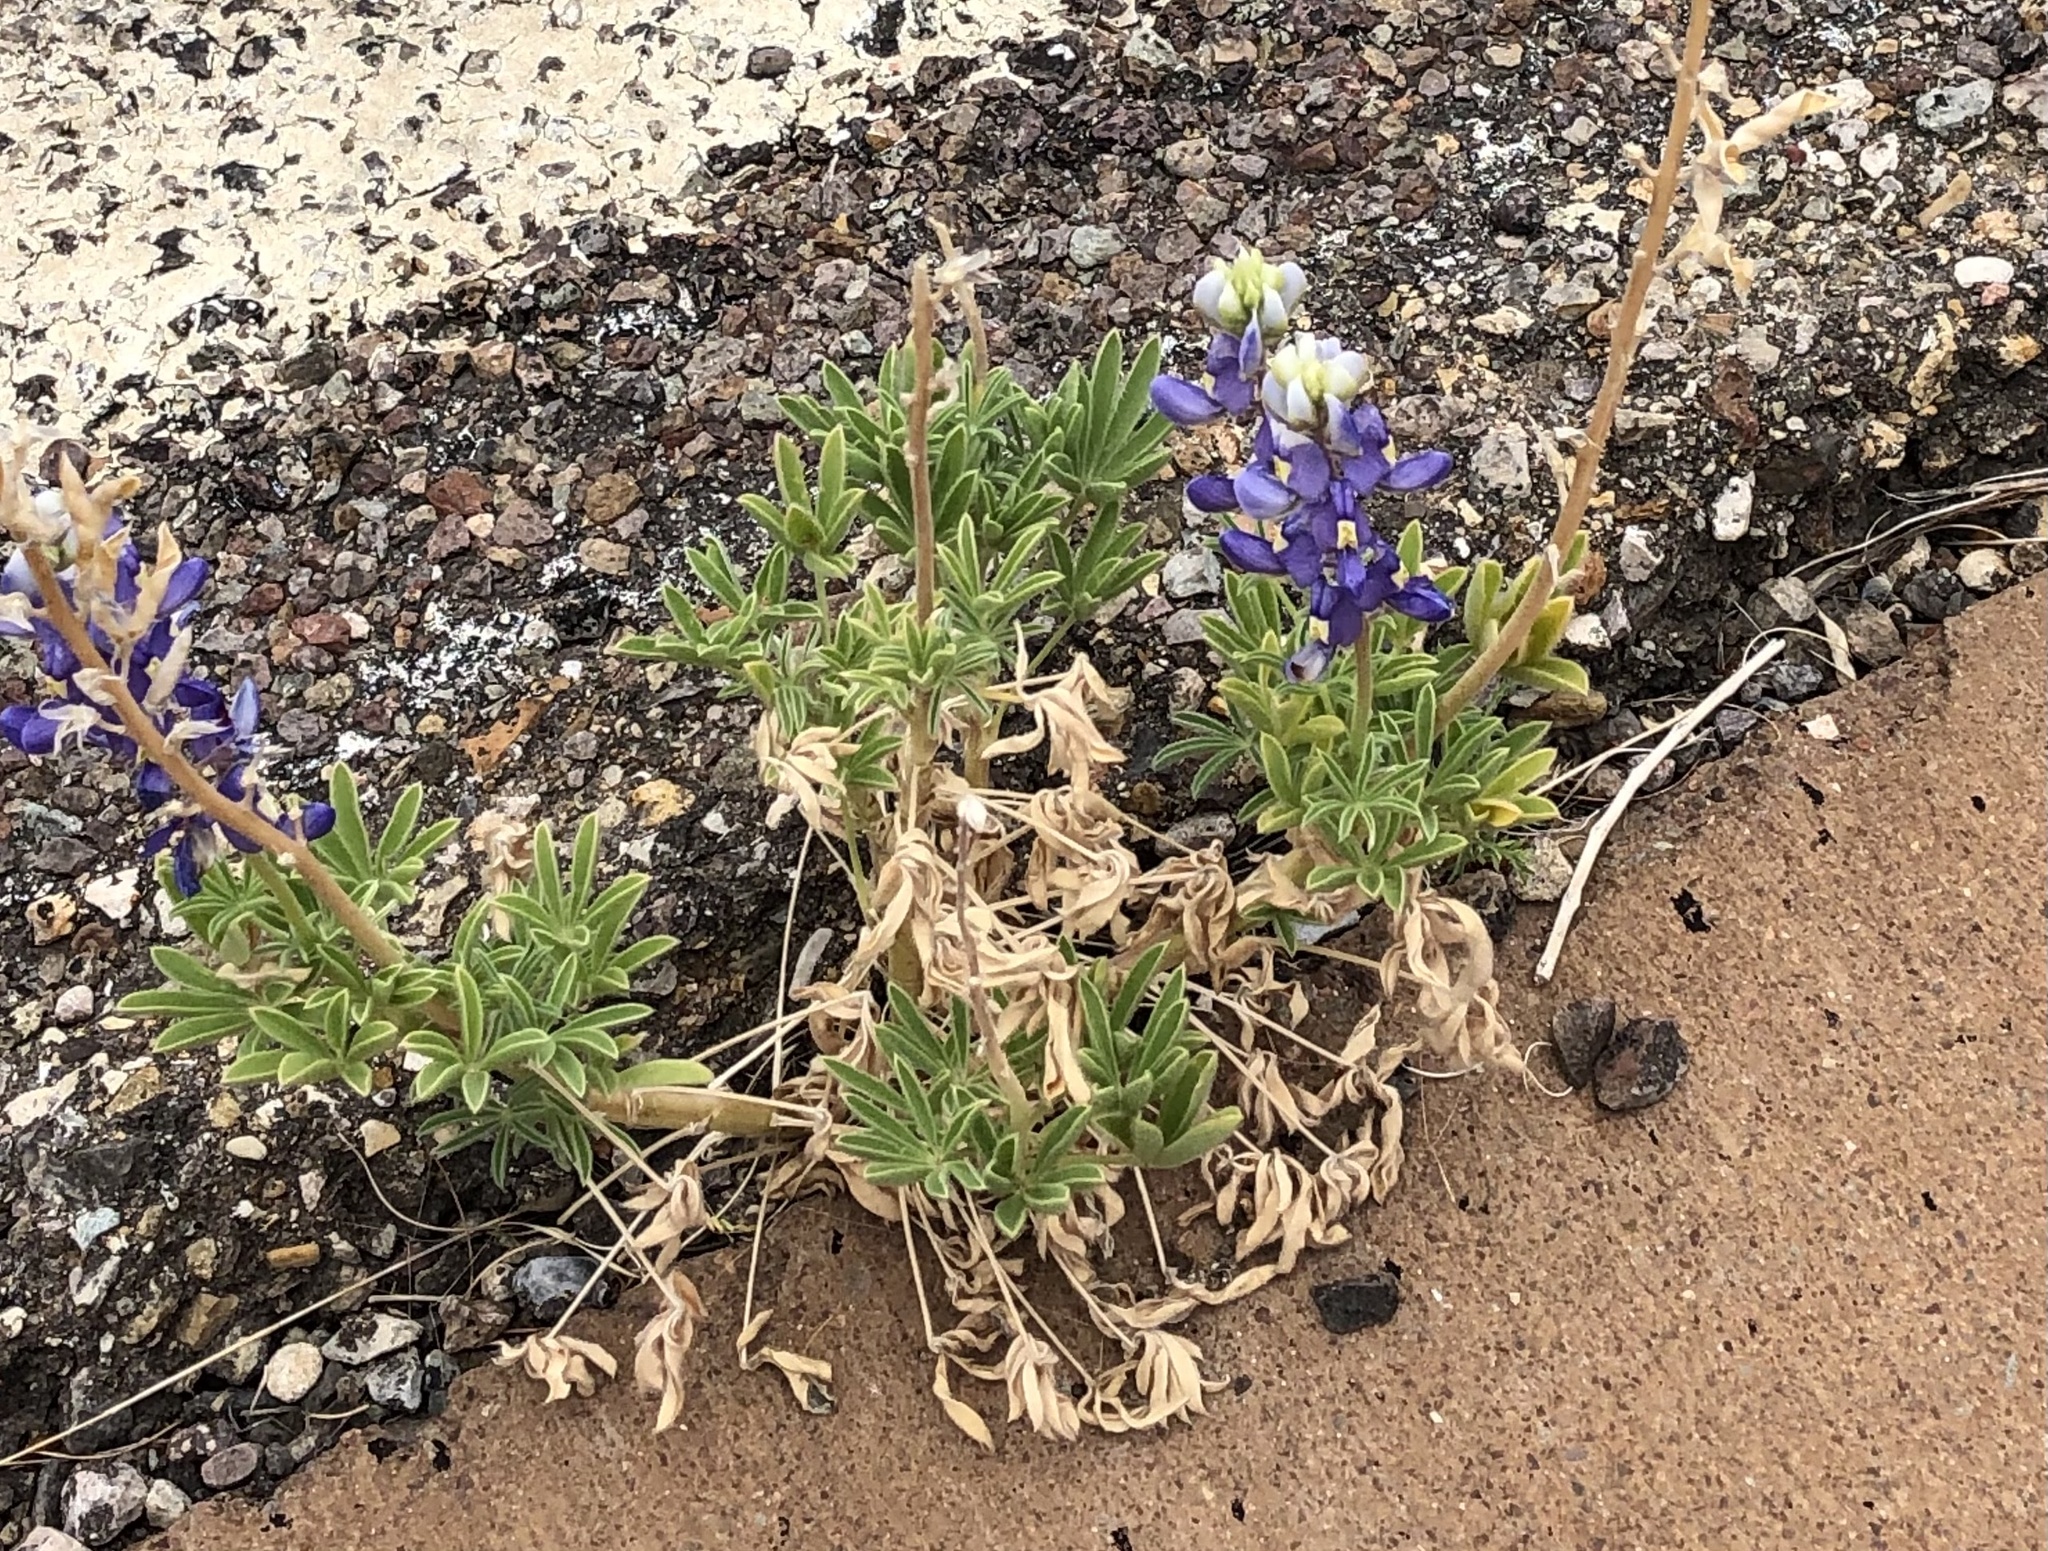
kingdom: Plantae
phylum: Tracheophyta
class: Magnoliopsida
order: Fabales
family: Fabaceae
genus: Lupinus
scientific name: Lupinus havardii
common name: Chisos bluebonnet
